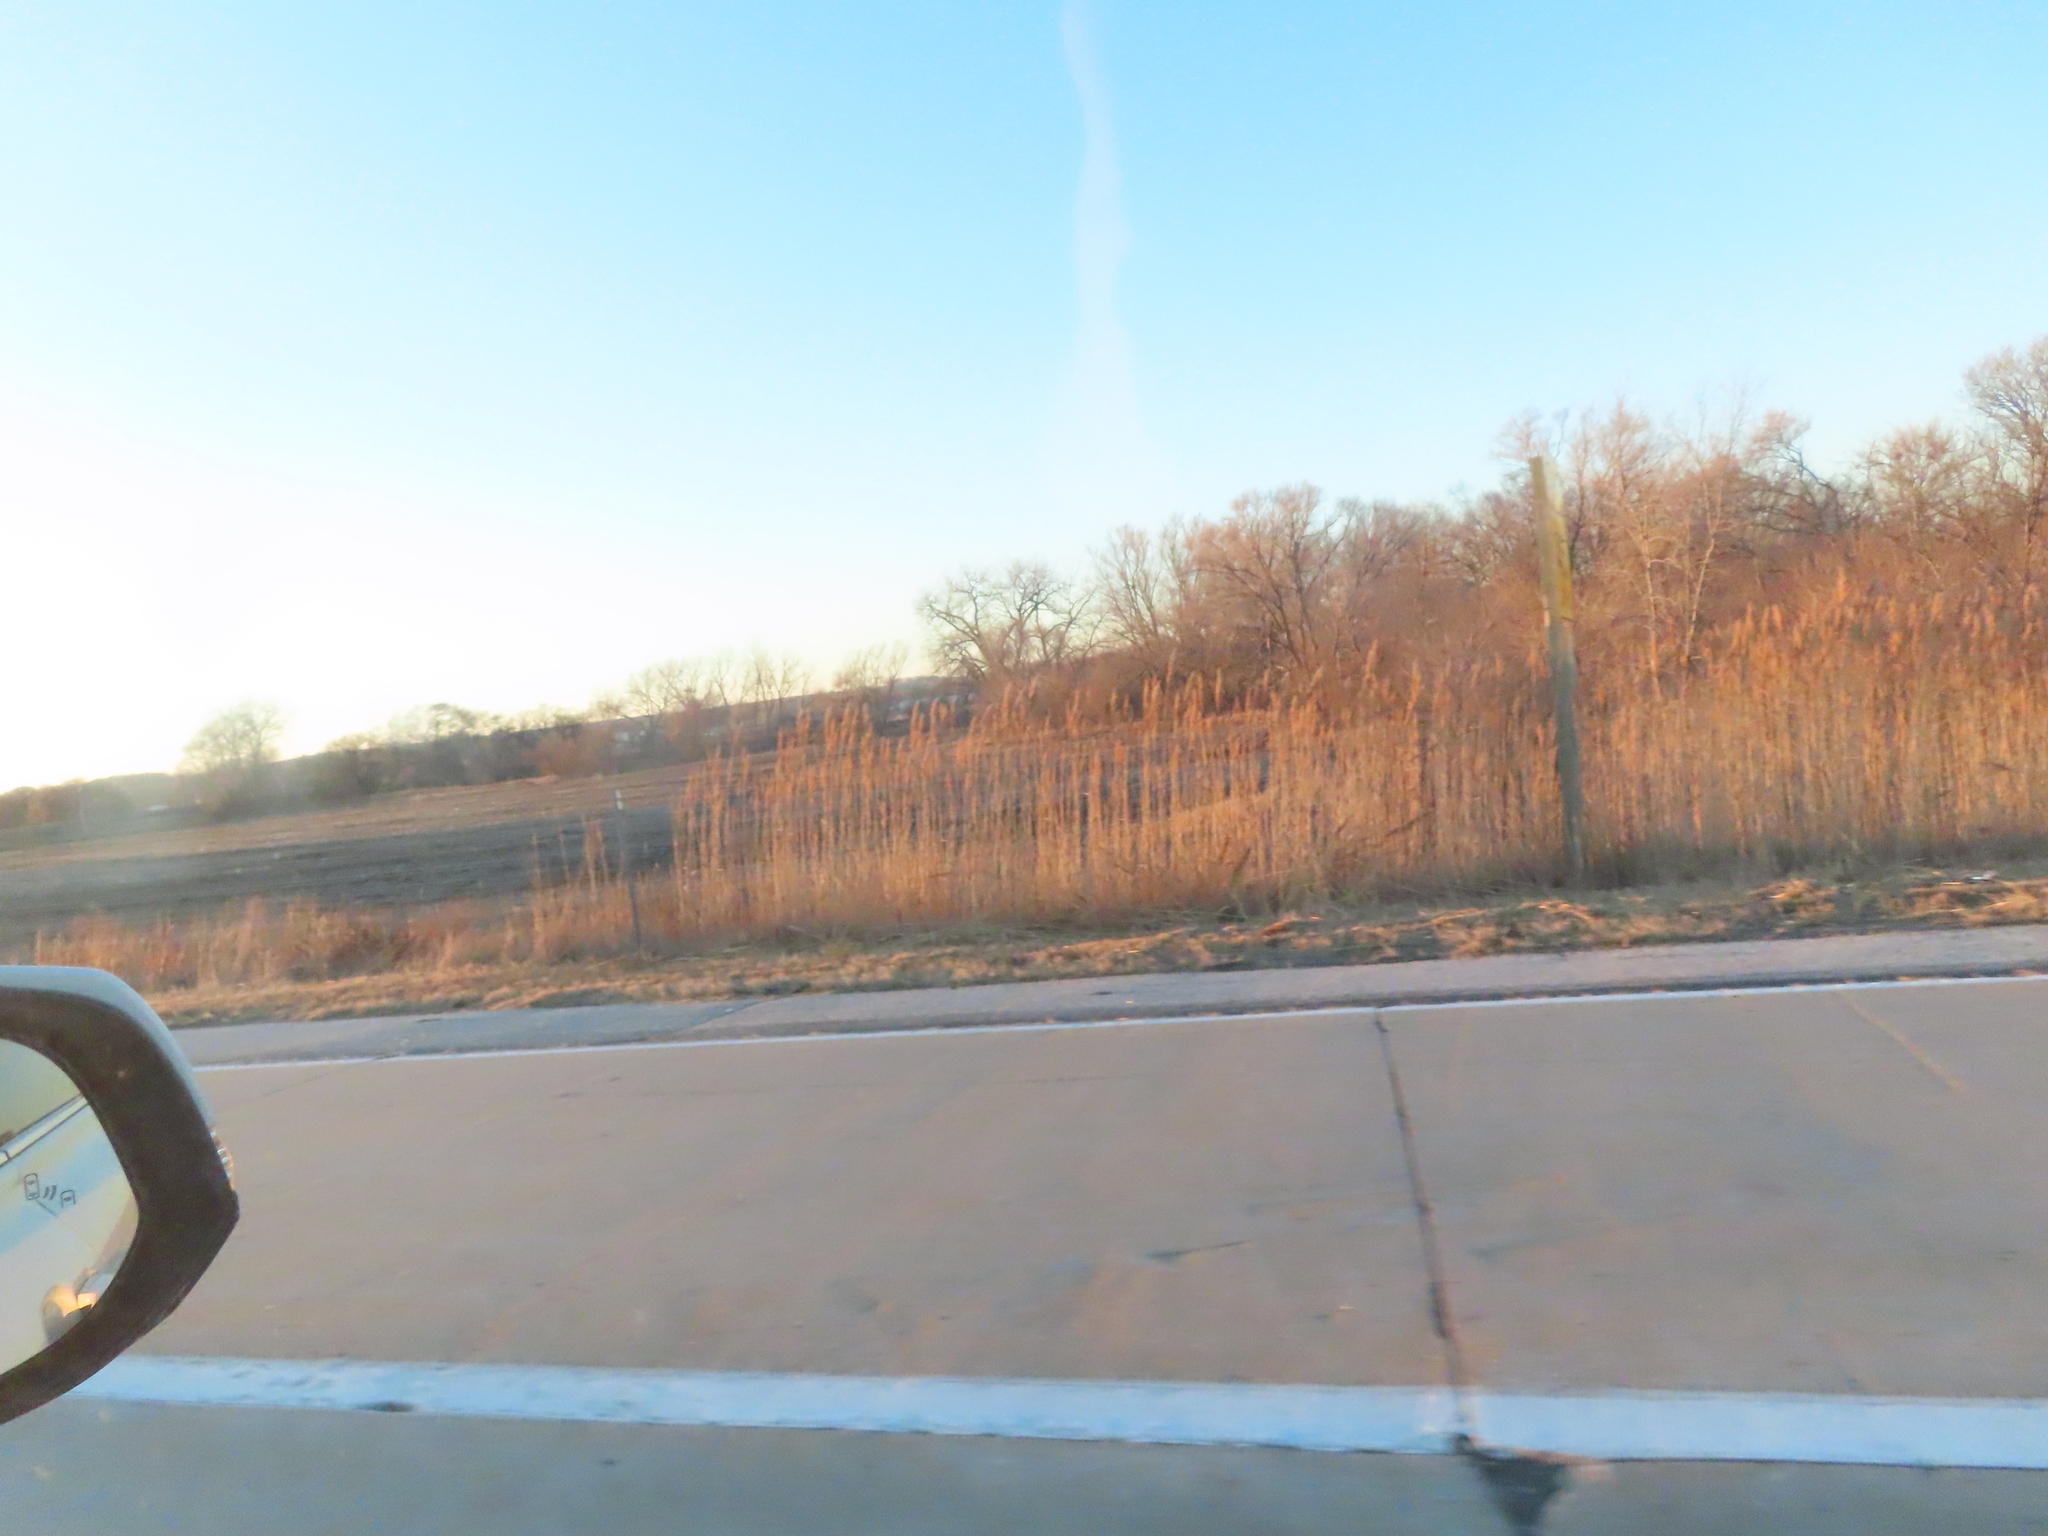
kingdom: Plantae
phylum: Tracheophyta
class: Liliopsida
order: Poales
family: Poaceae
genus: Phragmites
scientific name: Phragmites australis
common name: Common reed
